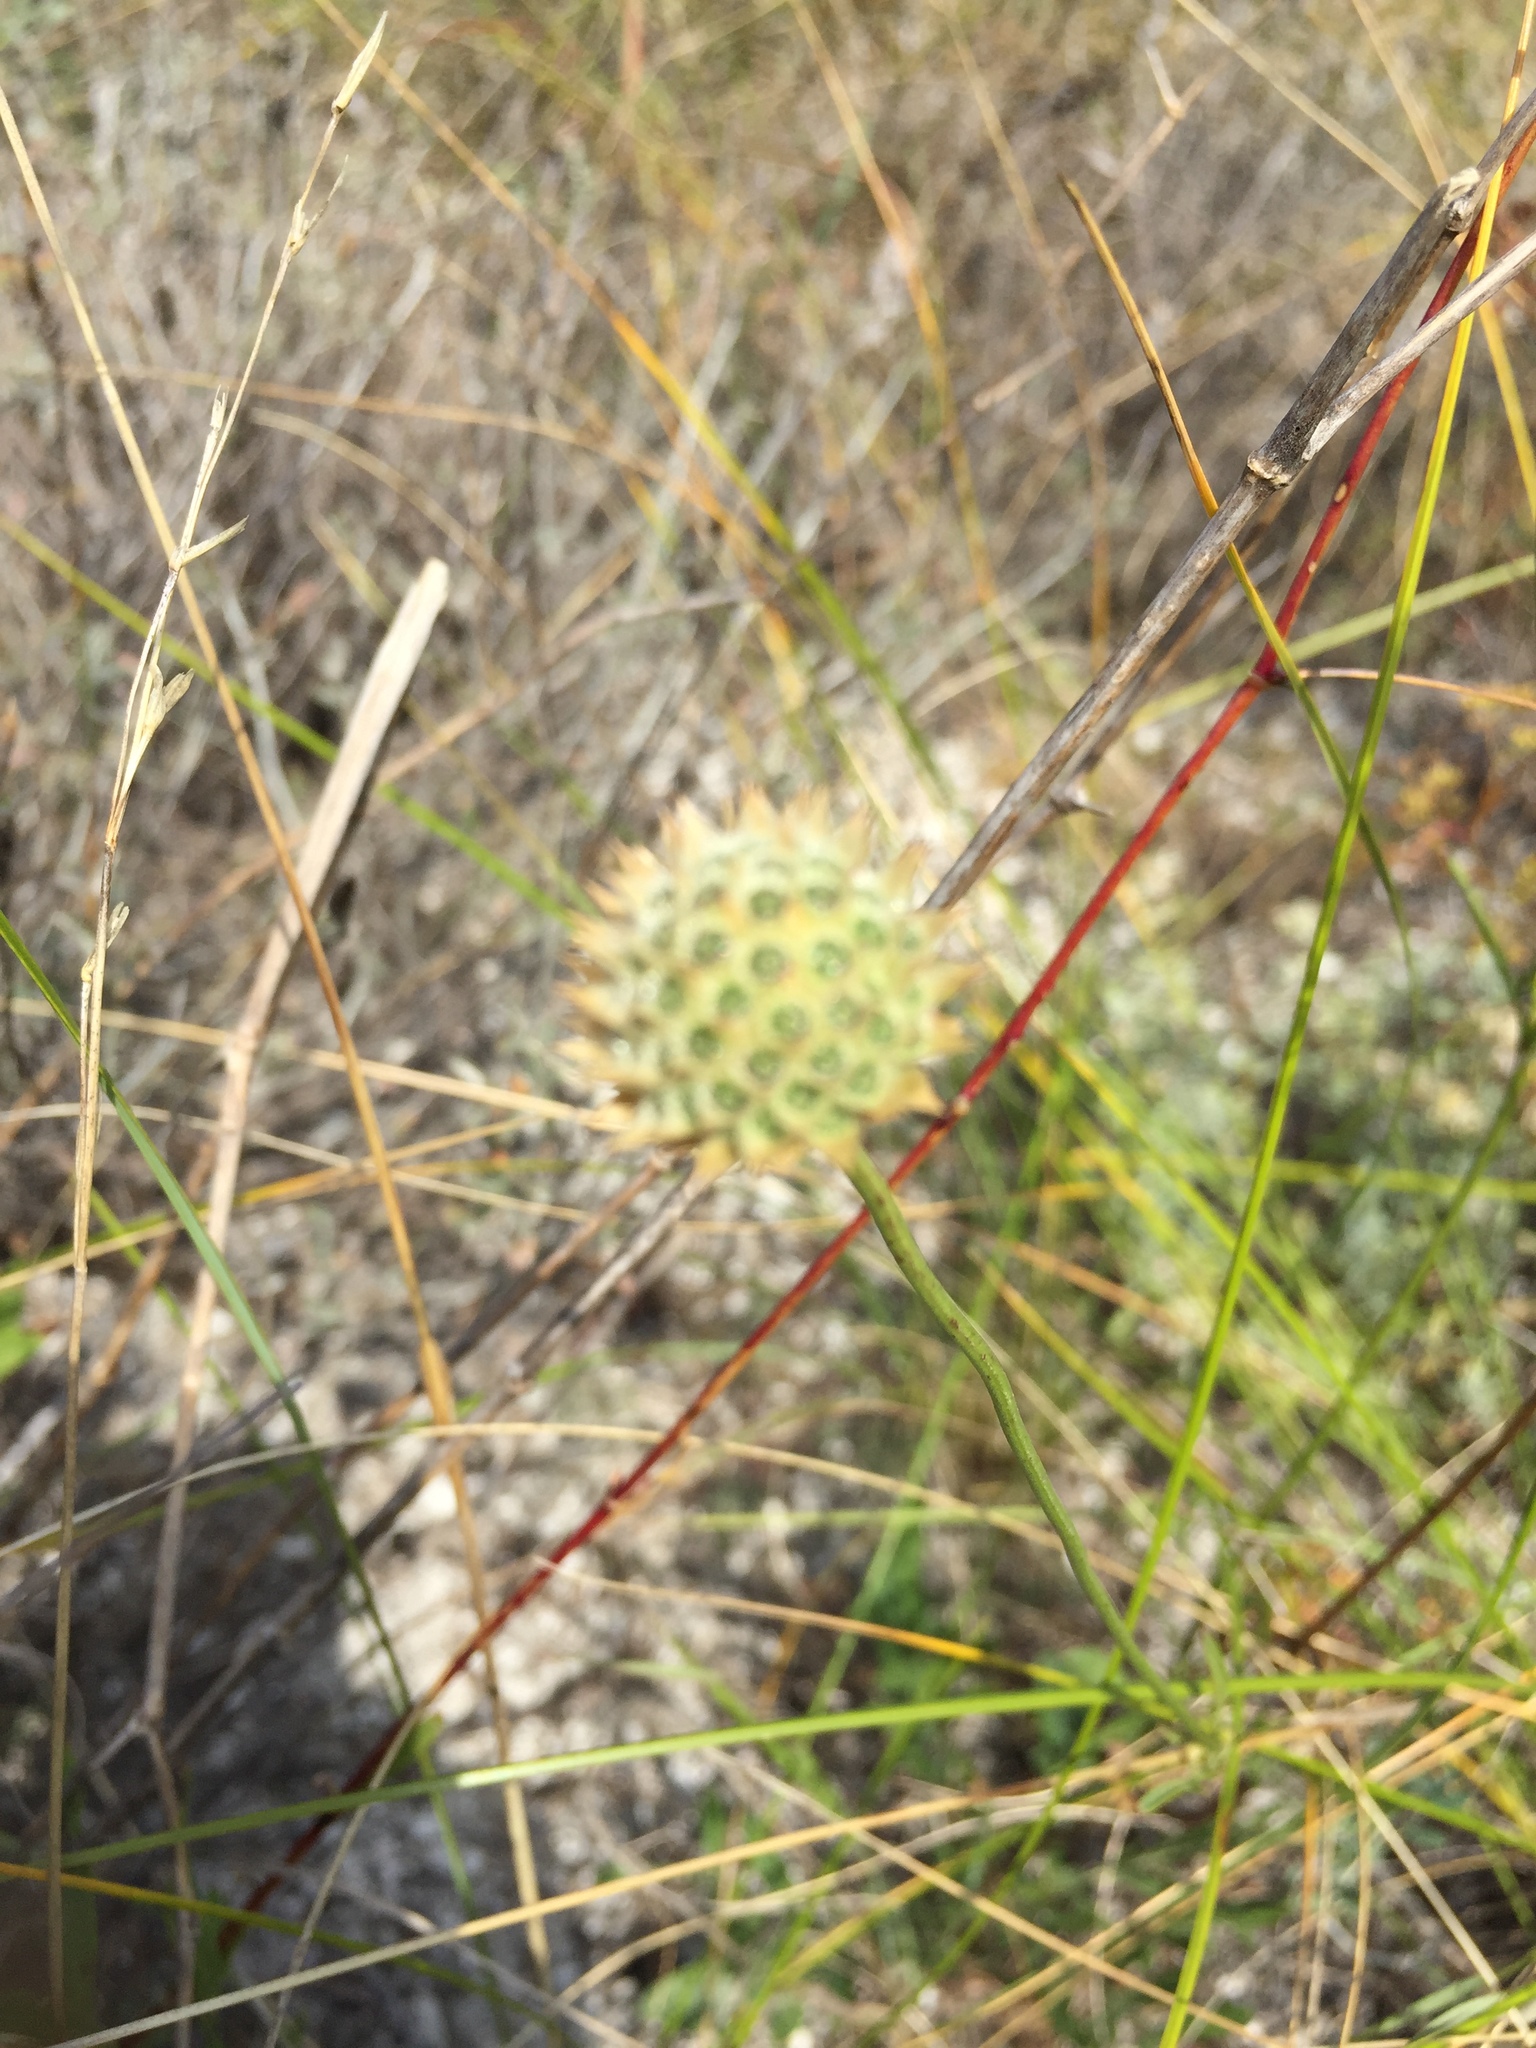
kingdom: Plantae
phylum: Tracheophyta
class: Magnoliopsida
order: Dipsacales
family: Caprifoliaceae
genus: Cephalaria
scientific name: Cephalaria uralensis
